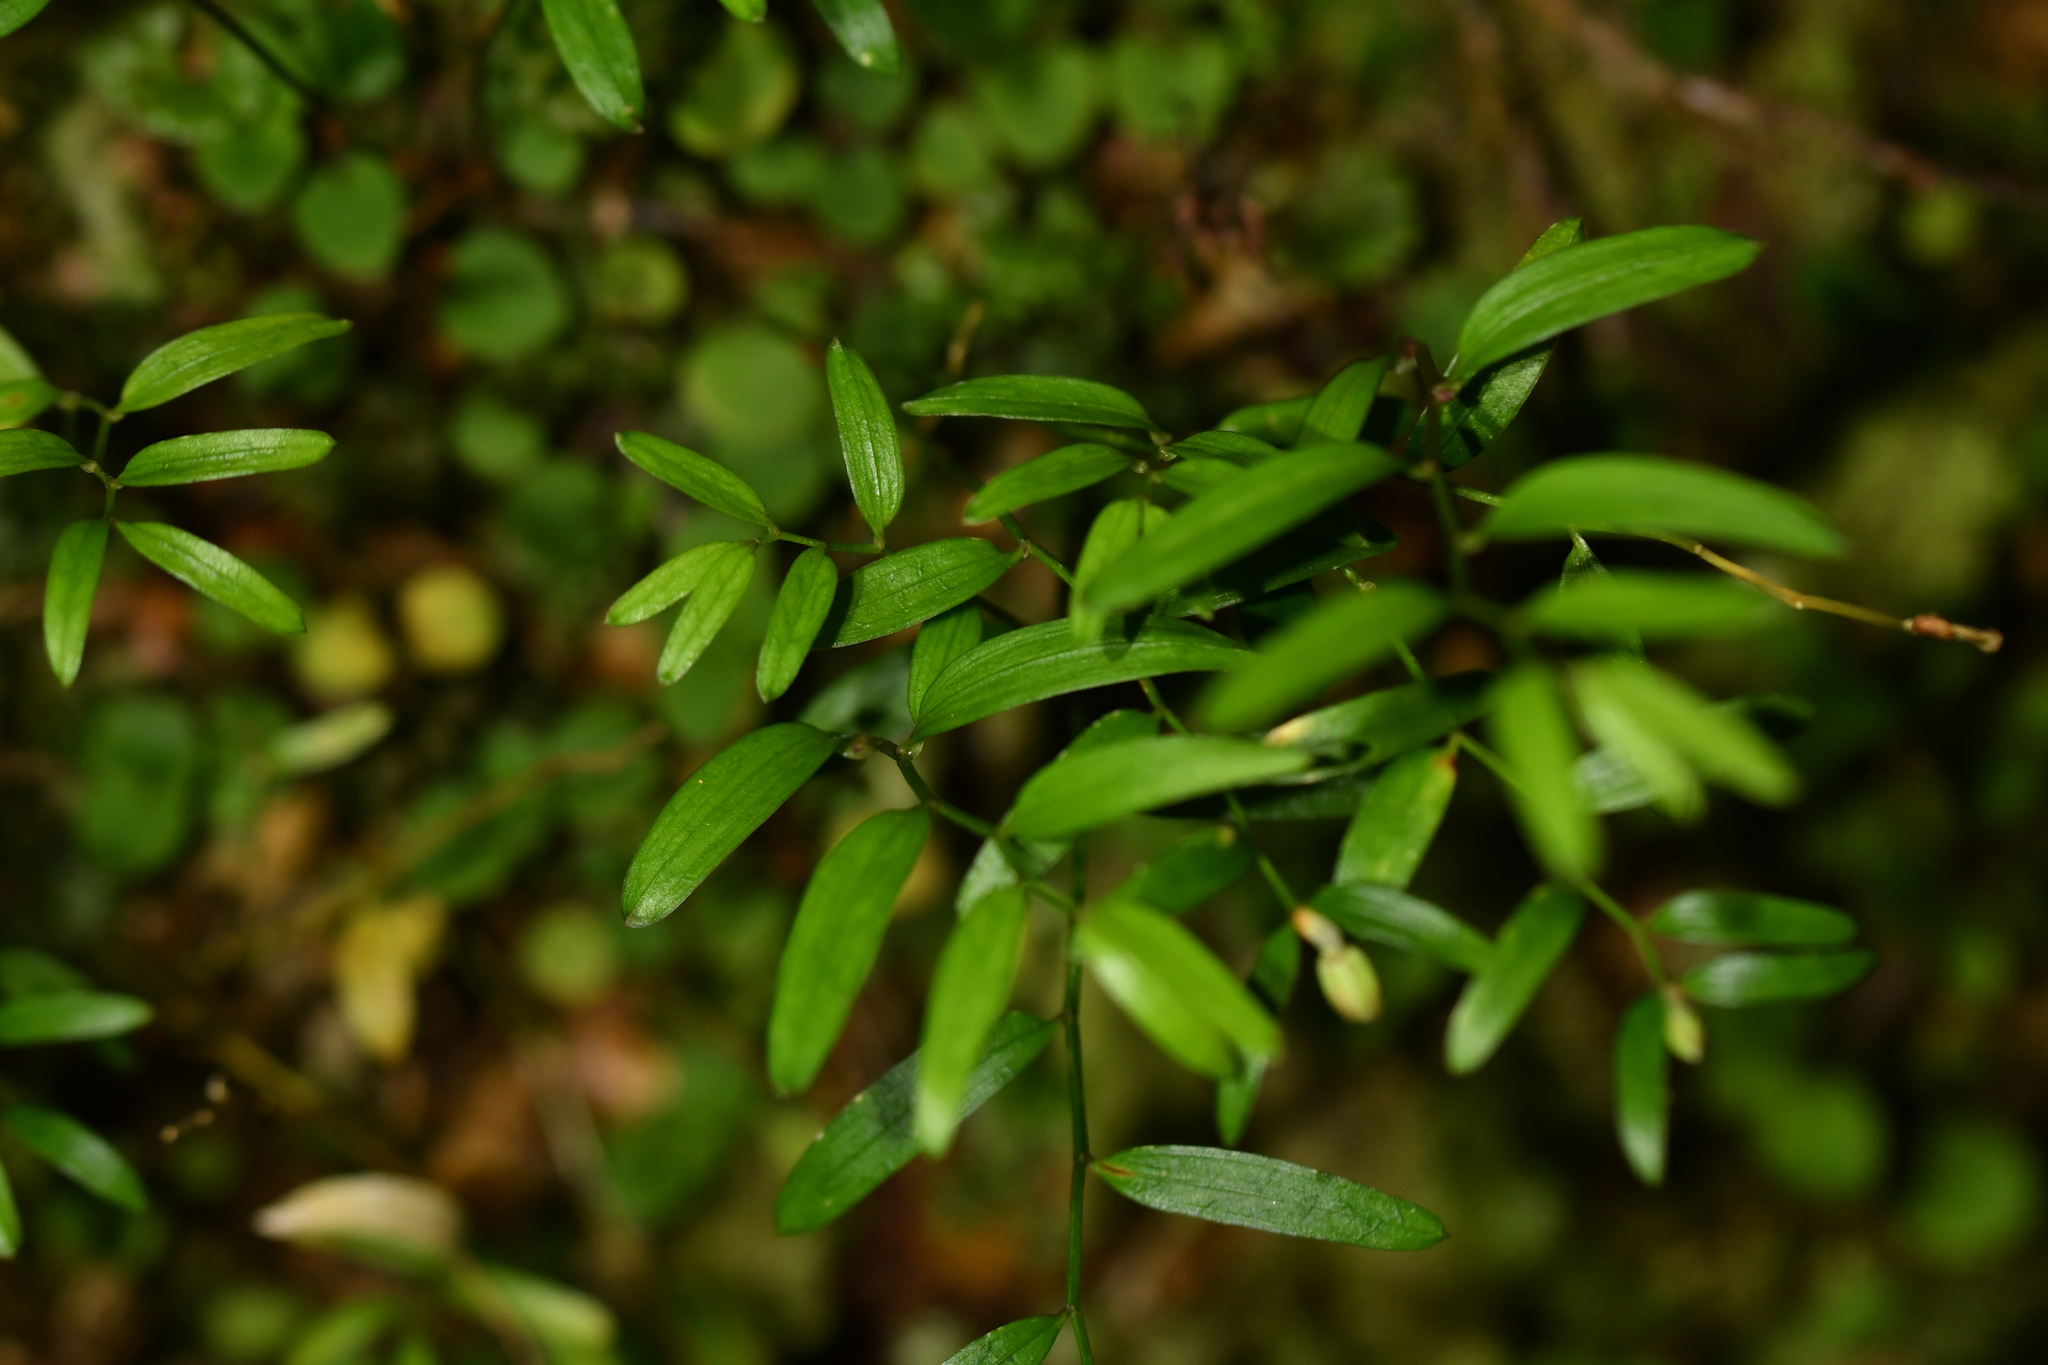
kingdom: Plantae
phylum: Tracheophyta
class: Liliopsida
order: Liliales
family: Alstroemeriaceae
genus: Luzuriaga
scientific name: Luzuriaga parviflora
